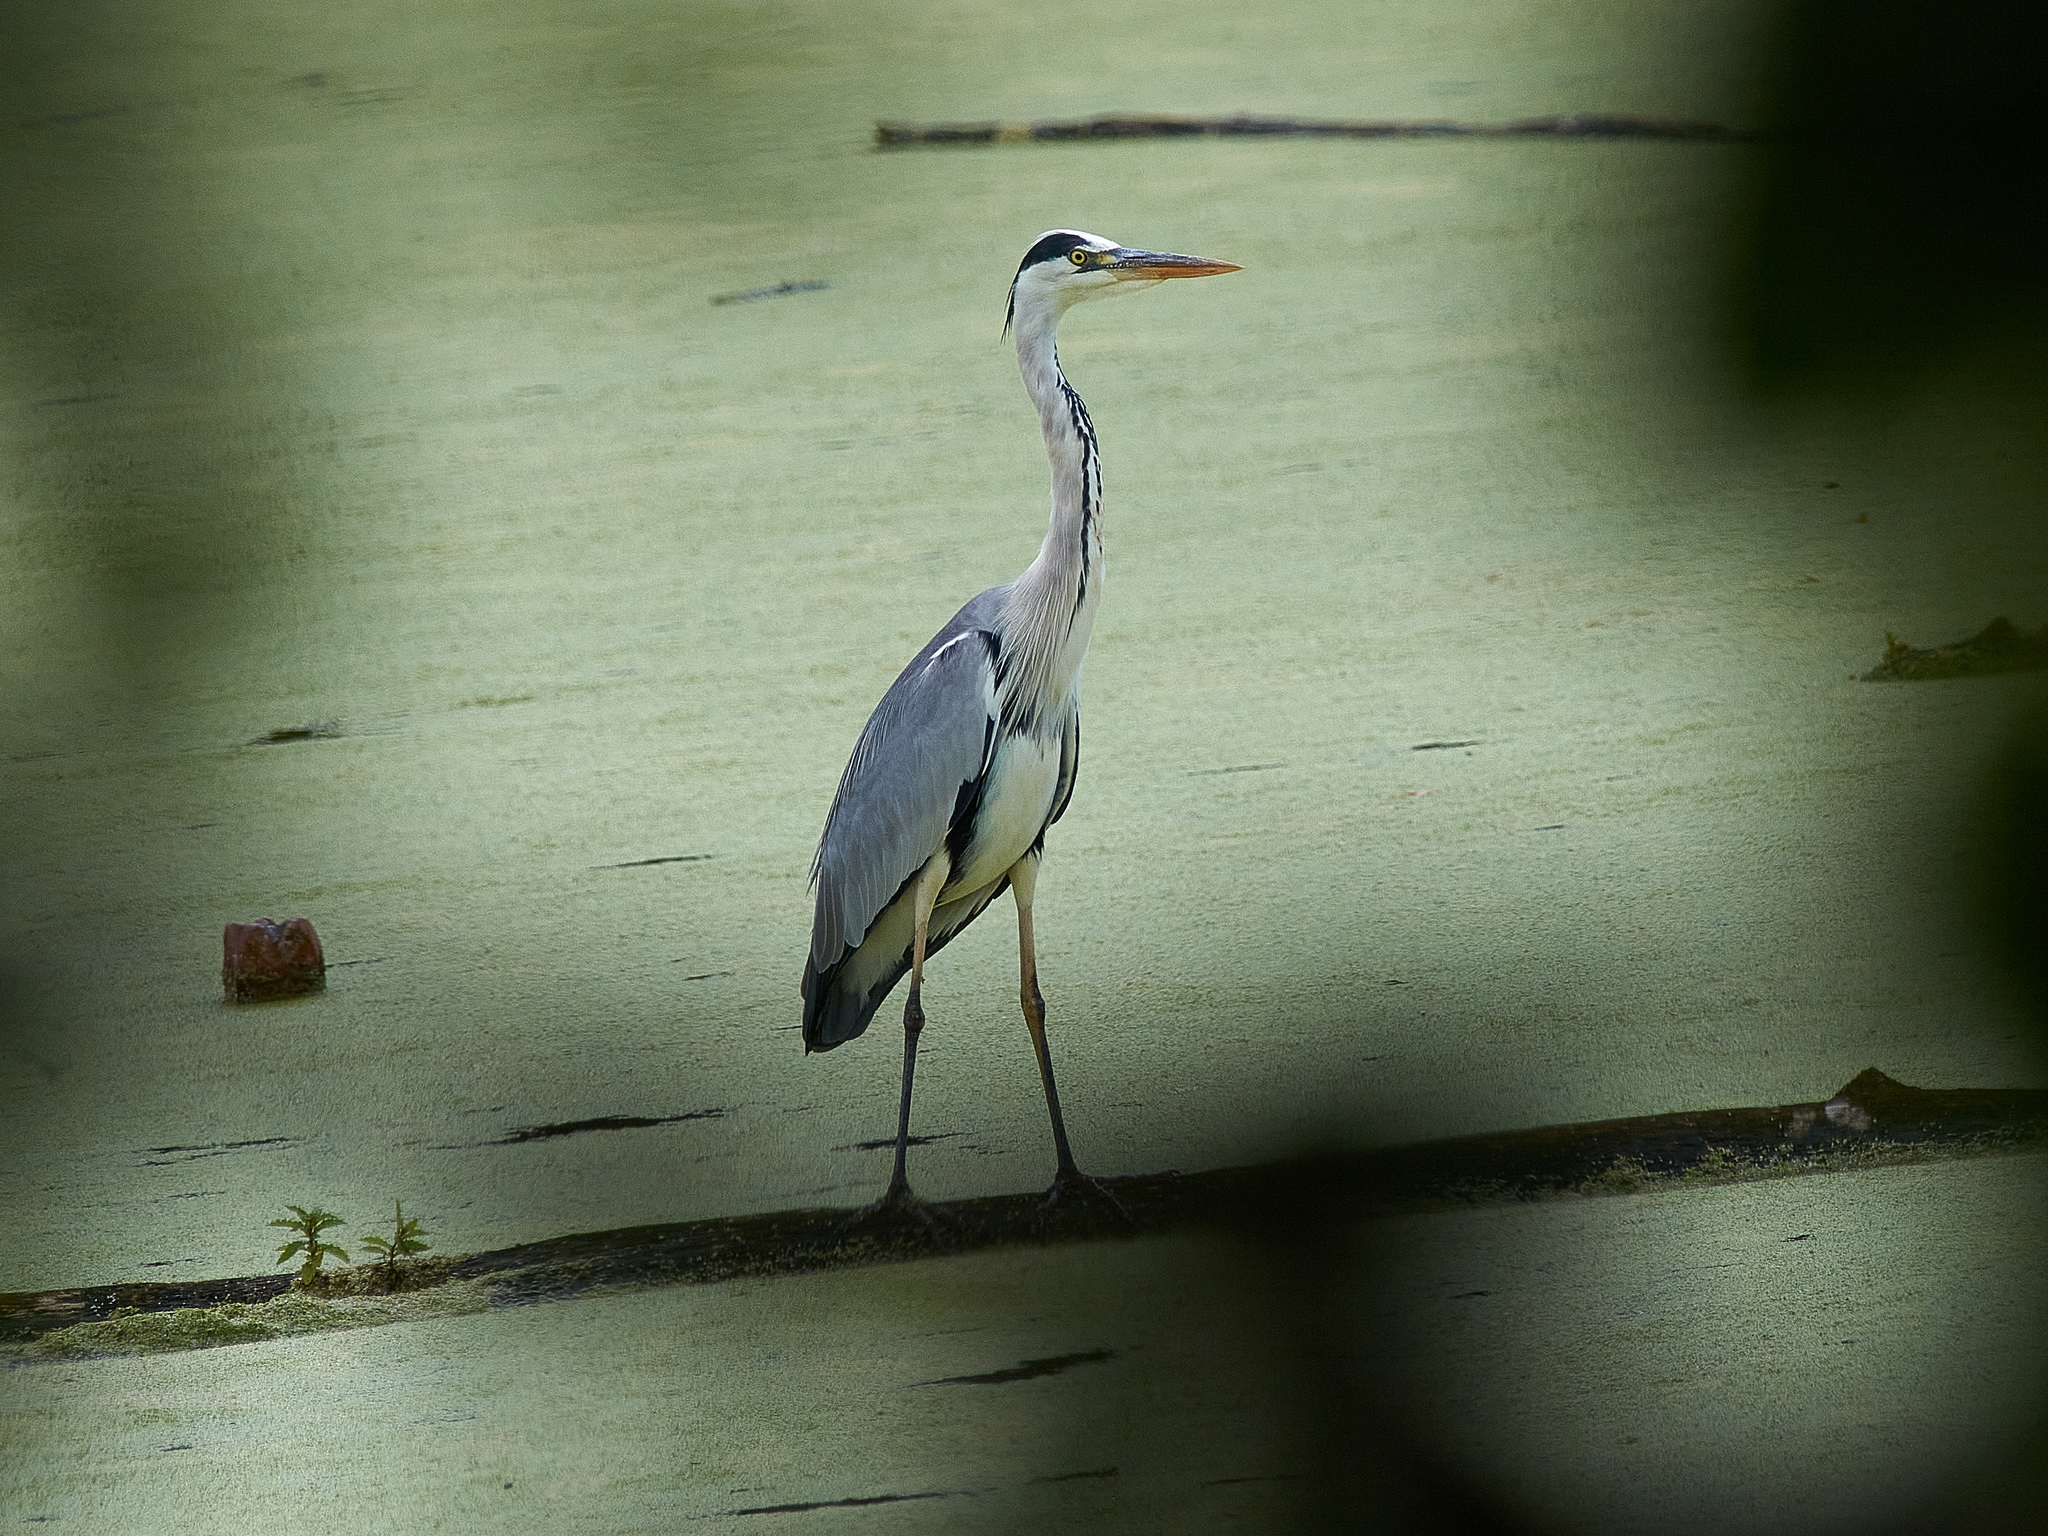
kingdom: Animalia
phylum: Chordata
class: Aves
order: Pelecaniformes
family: Ardeidae
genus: Ardea
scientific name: Ardea cinerea
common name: Grey heron
